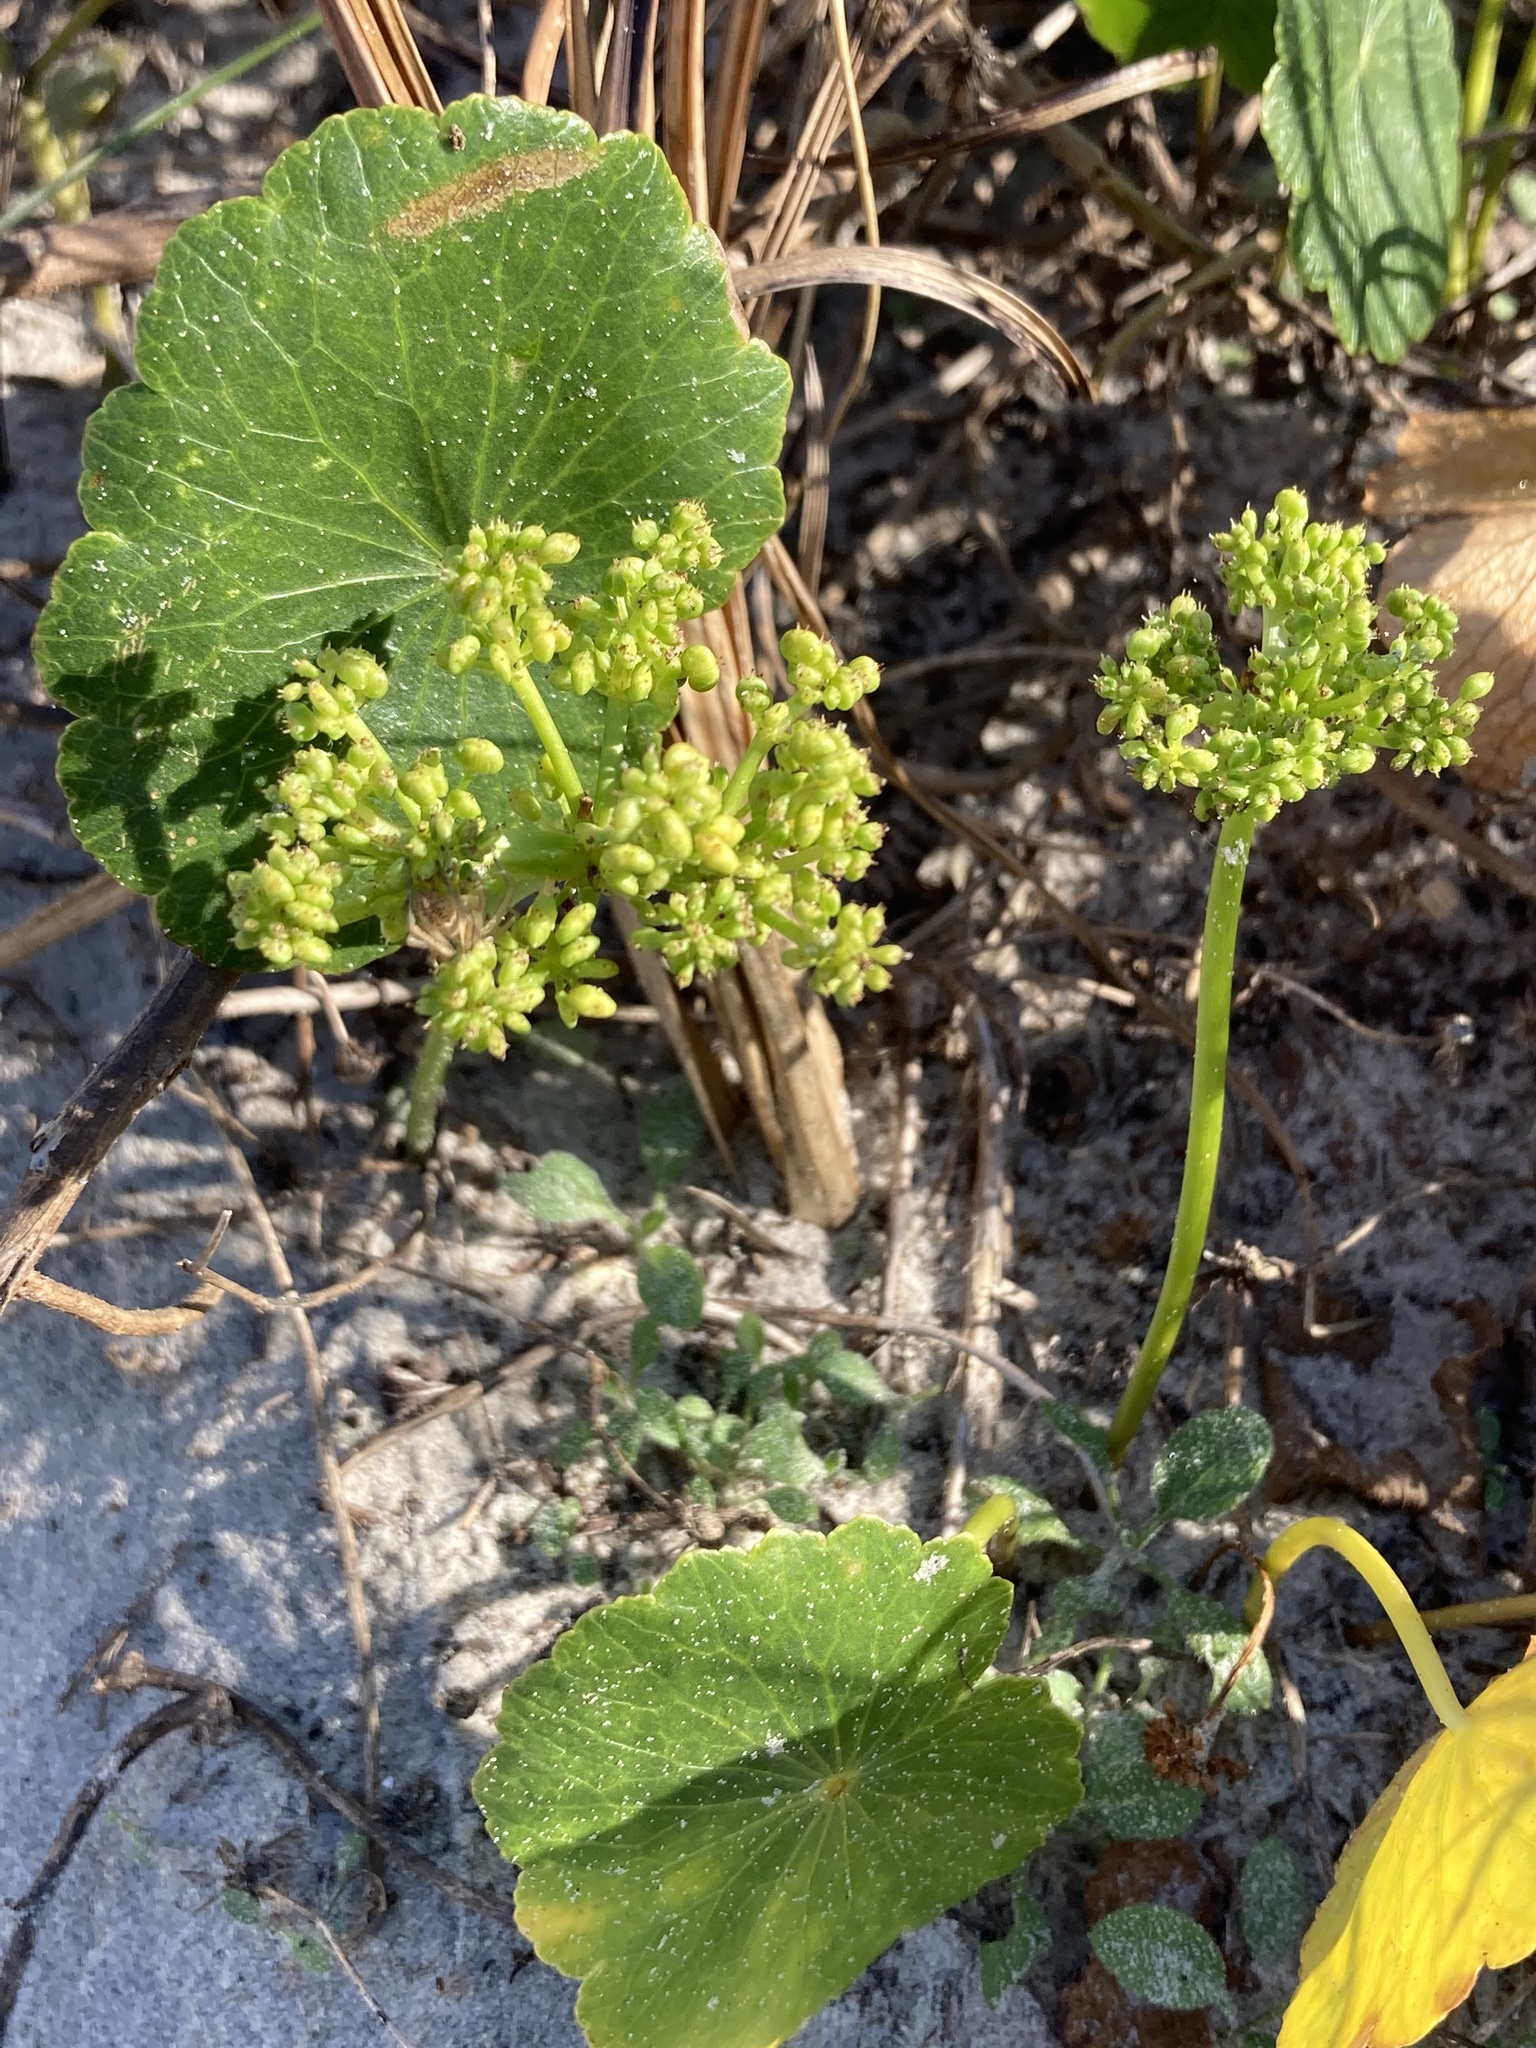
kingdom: Plantae
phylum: Tracheophyta
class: Magnoliopsida
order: Apiales
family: Araliaceae
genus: Hydrocotyle
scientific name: Hydrocotyle bonariensis
